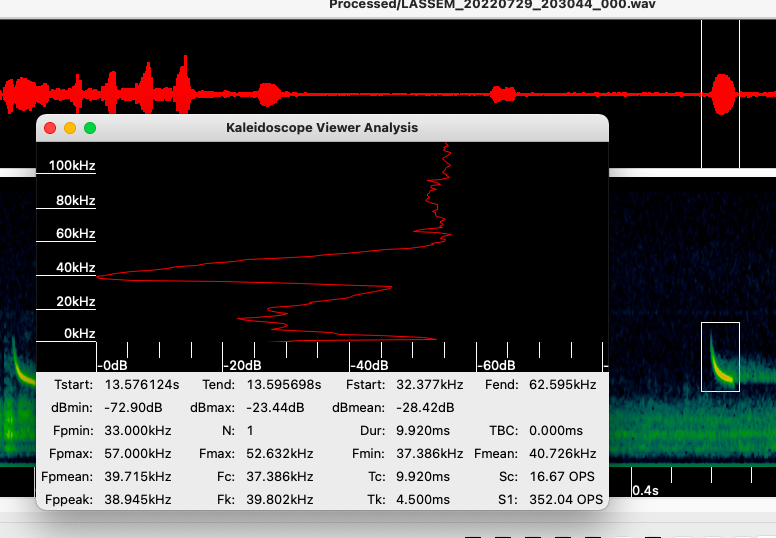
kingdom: Animalia
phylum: Chordata
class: Mammalia
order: Chiroptera
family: Vespertilionidae
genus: Lasiurus
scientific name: Lasiurus
